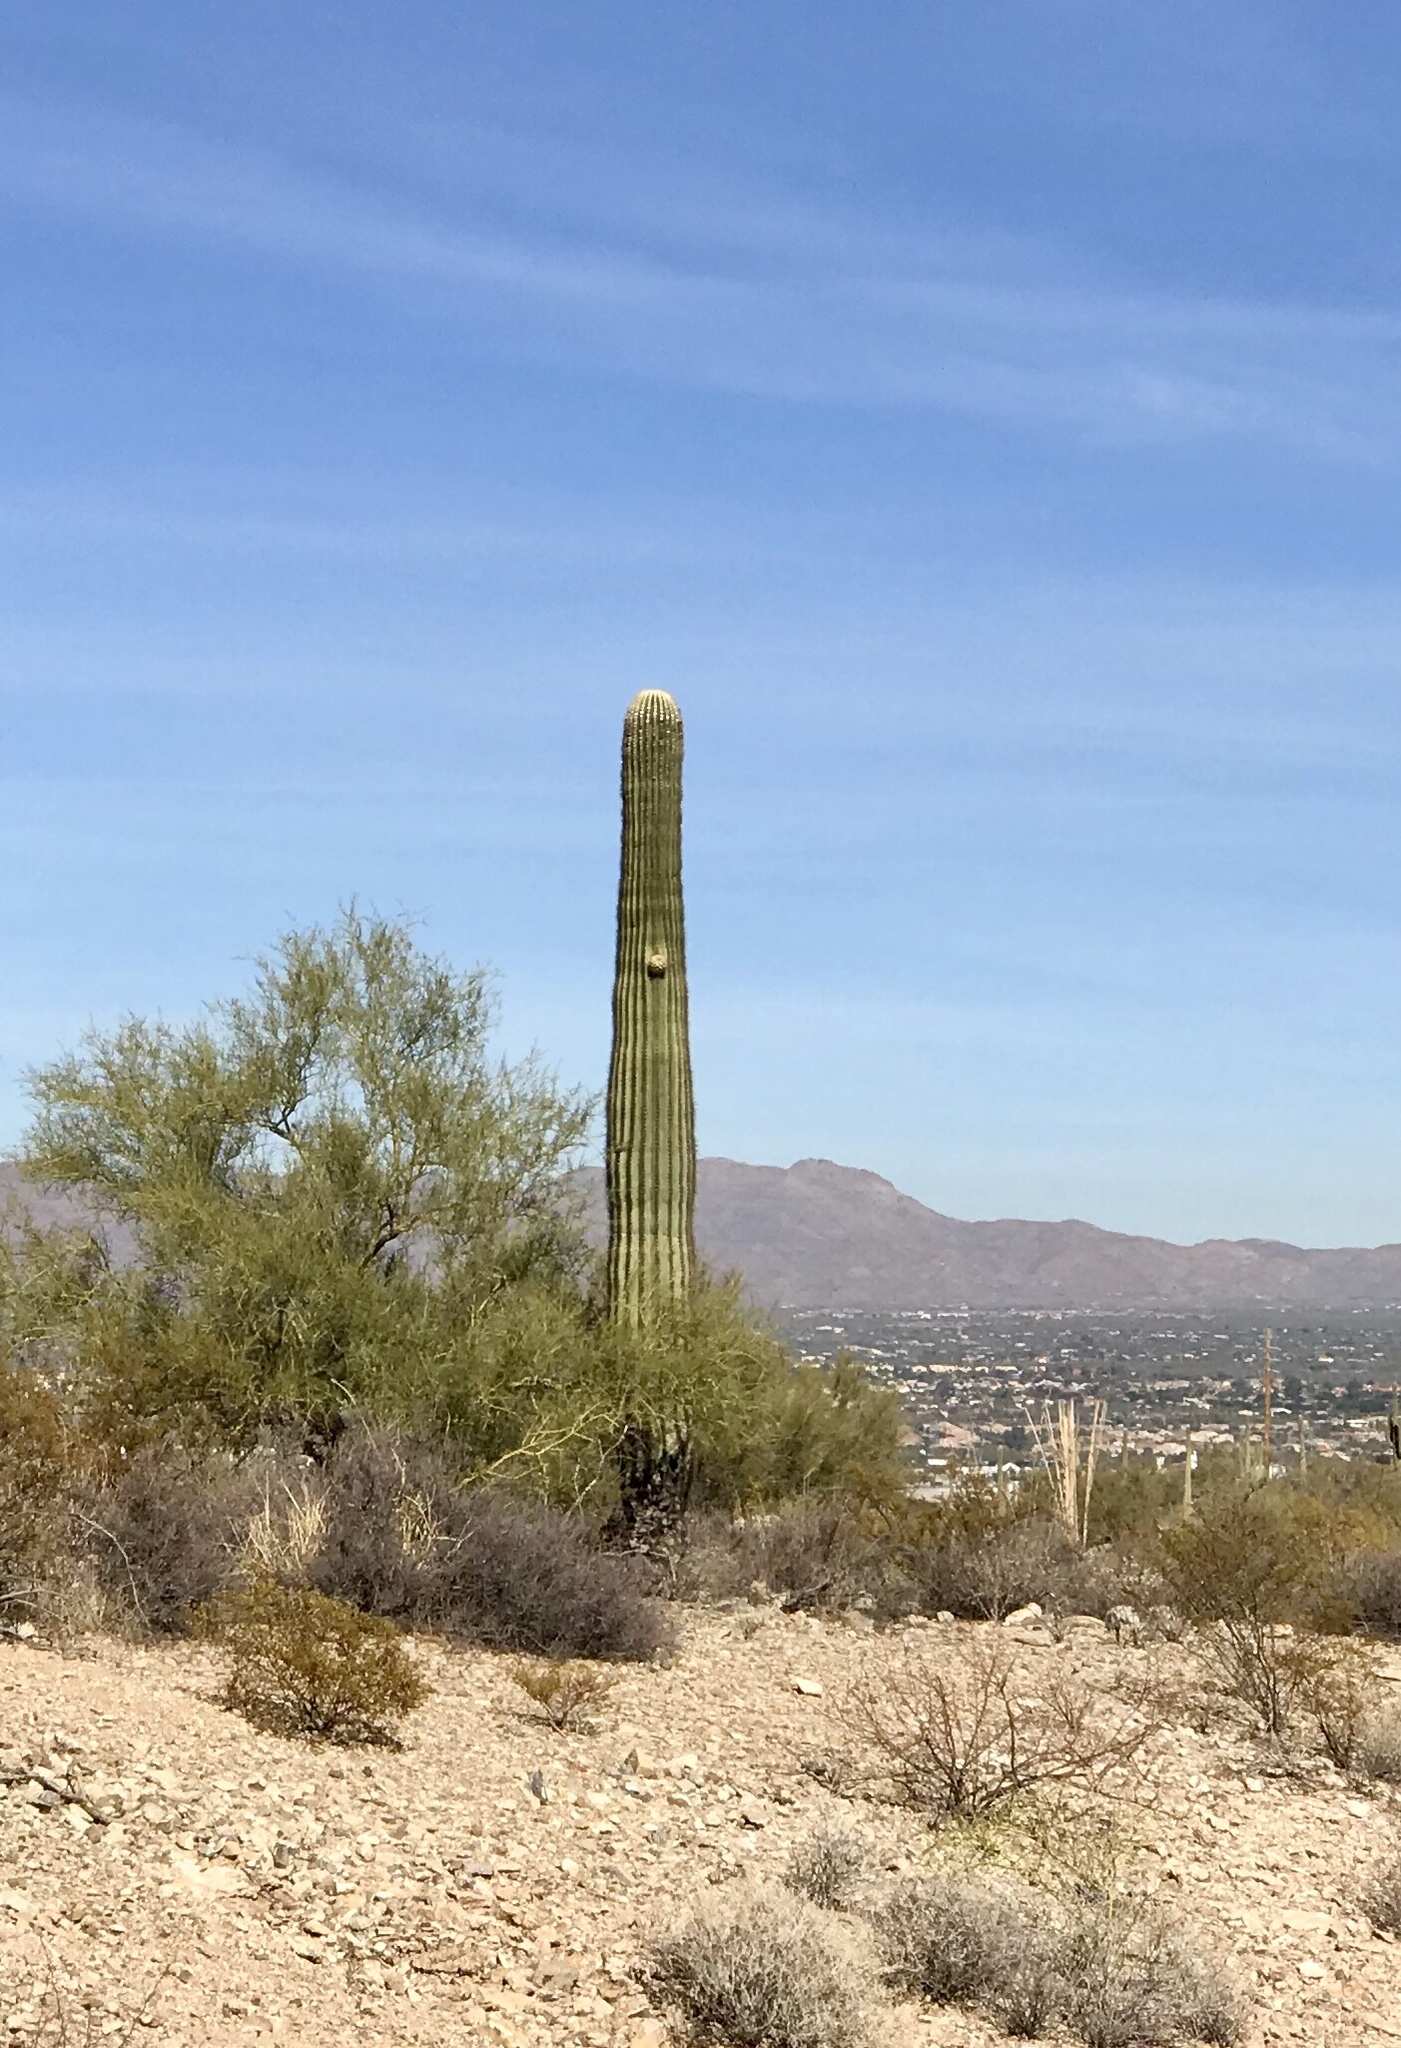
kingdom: Plantae
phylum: Tracheophyta
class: Magnoliopsida
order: Caryophyllales
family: Cactaceae
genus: Carnegiea
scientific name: Carnegiea gigantea
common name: Saguaro
